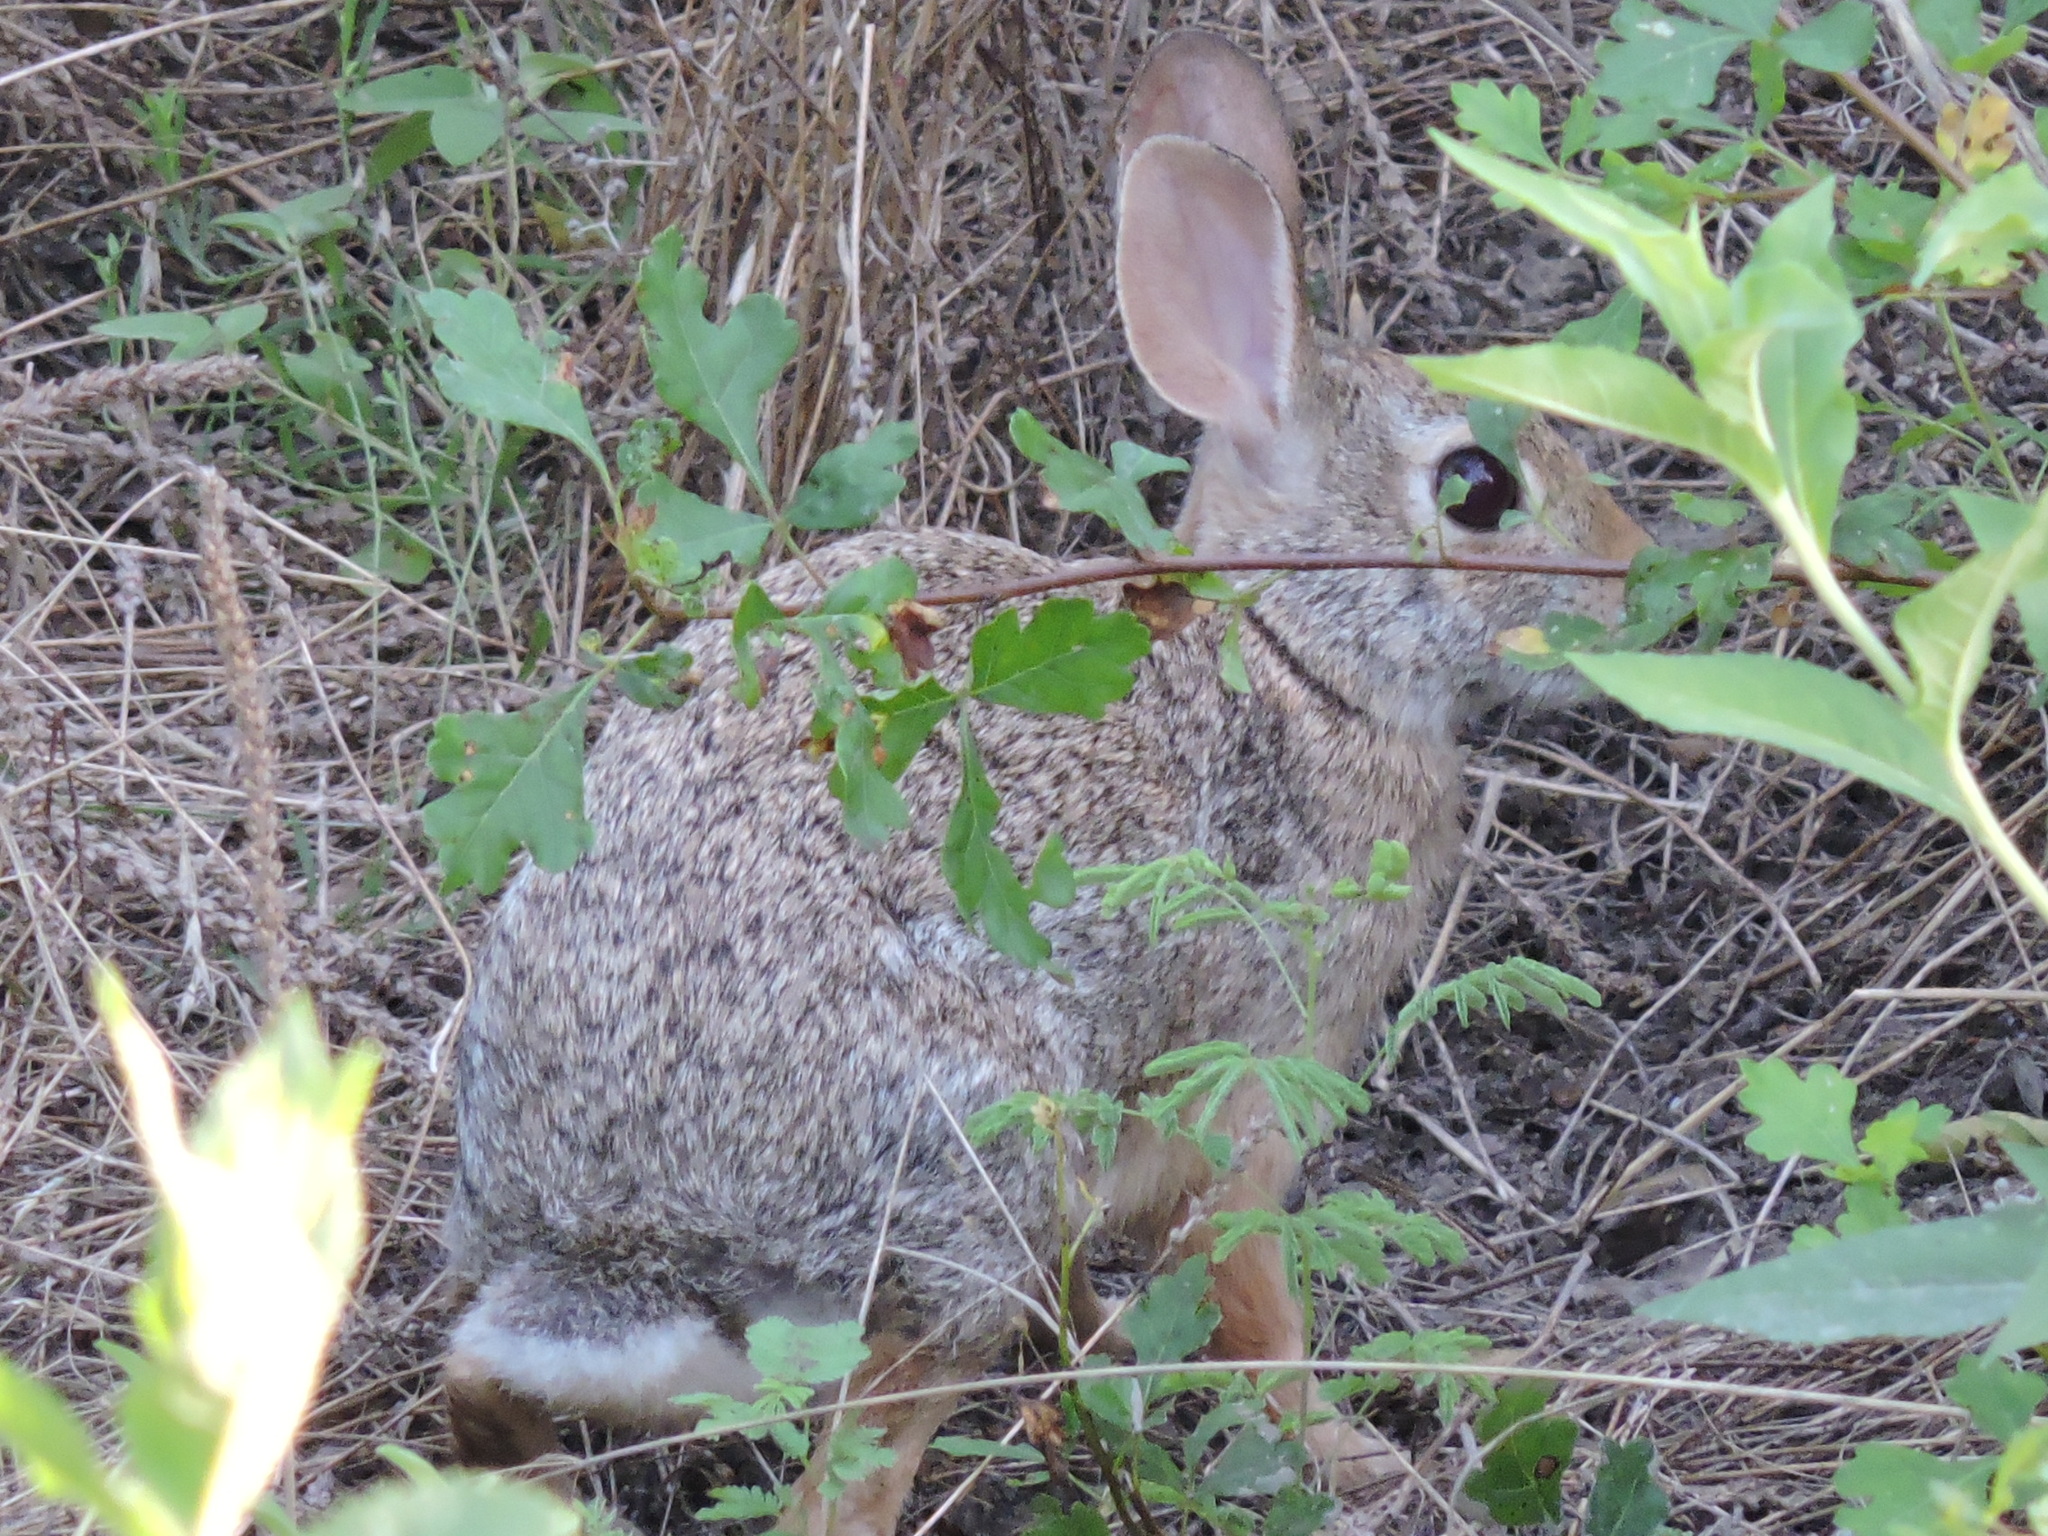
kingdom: Animalia
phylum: Chordata
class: Mammalia
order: Lagomorpha
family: Leporidae
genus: Sylvilagus
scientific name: Sylvilagus floridanus
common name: Eastern cottontail
